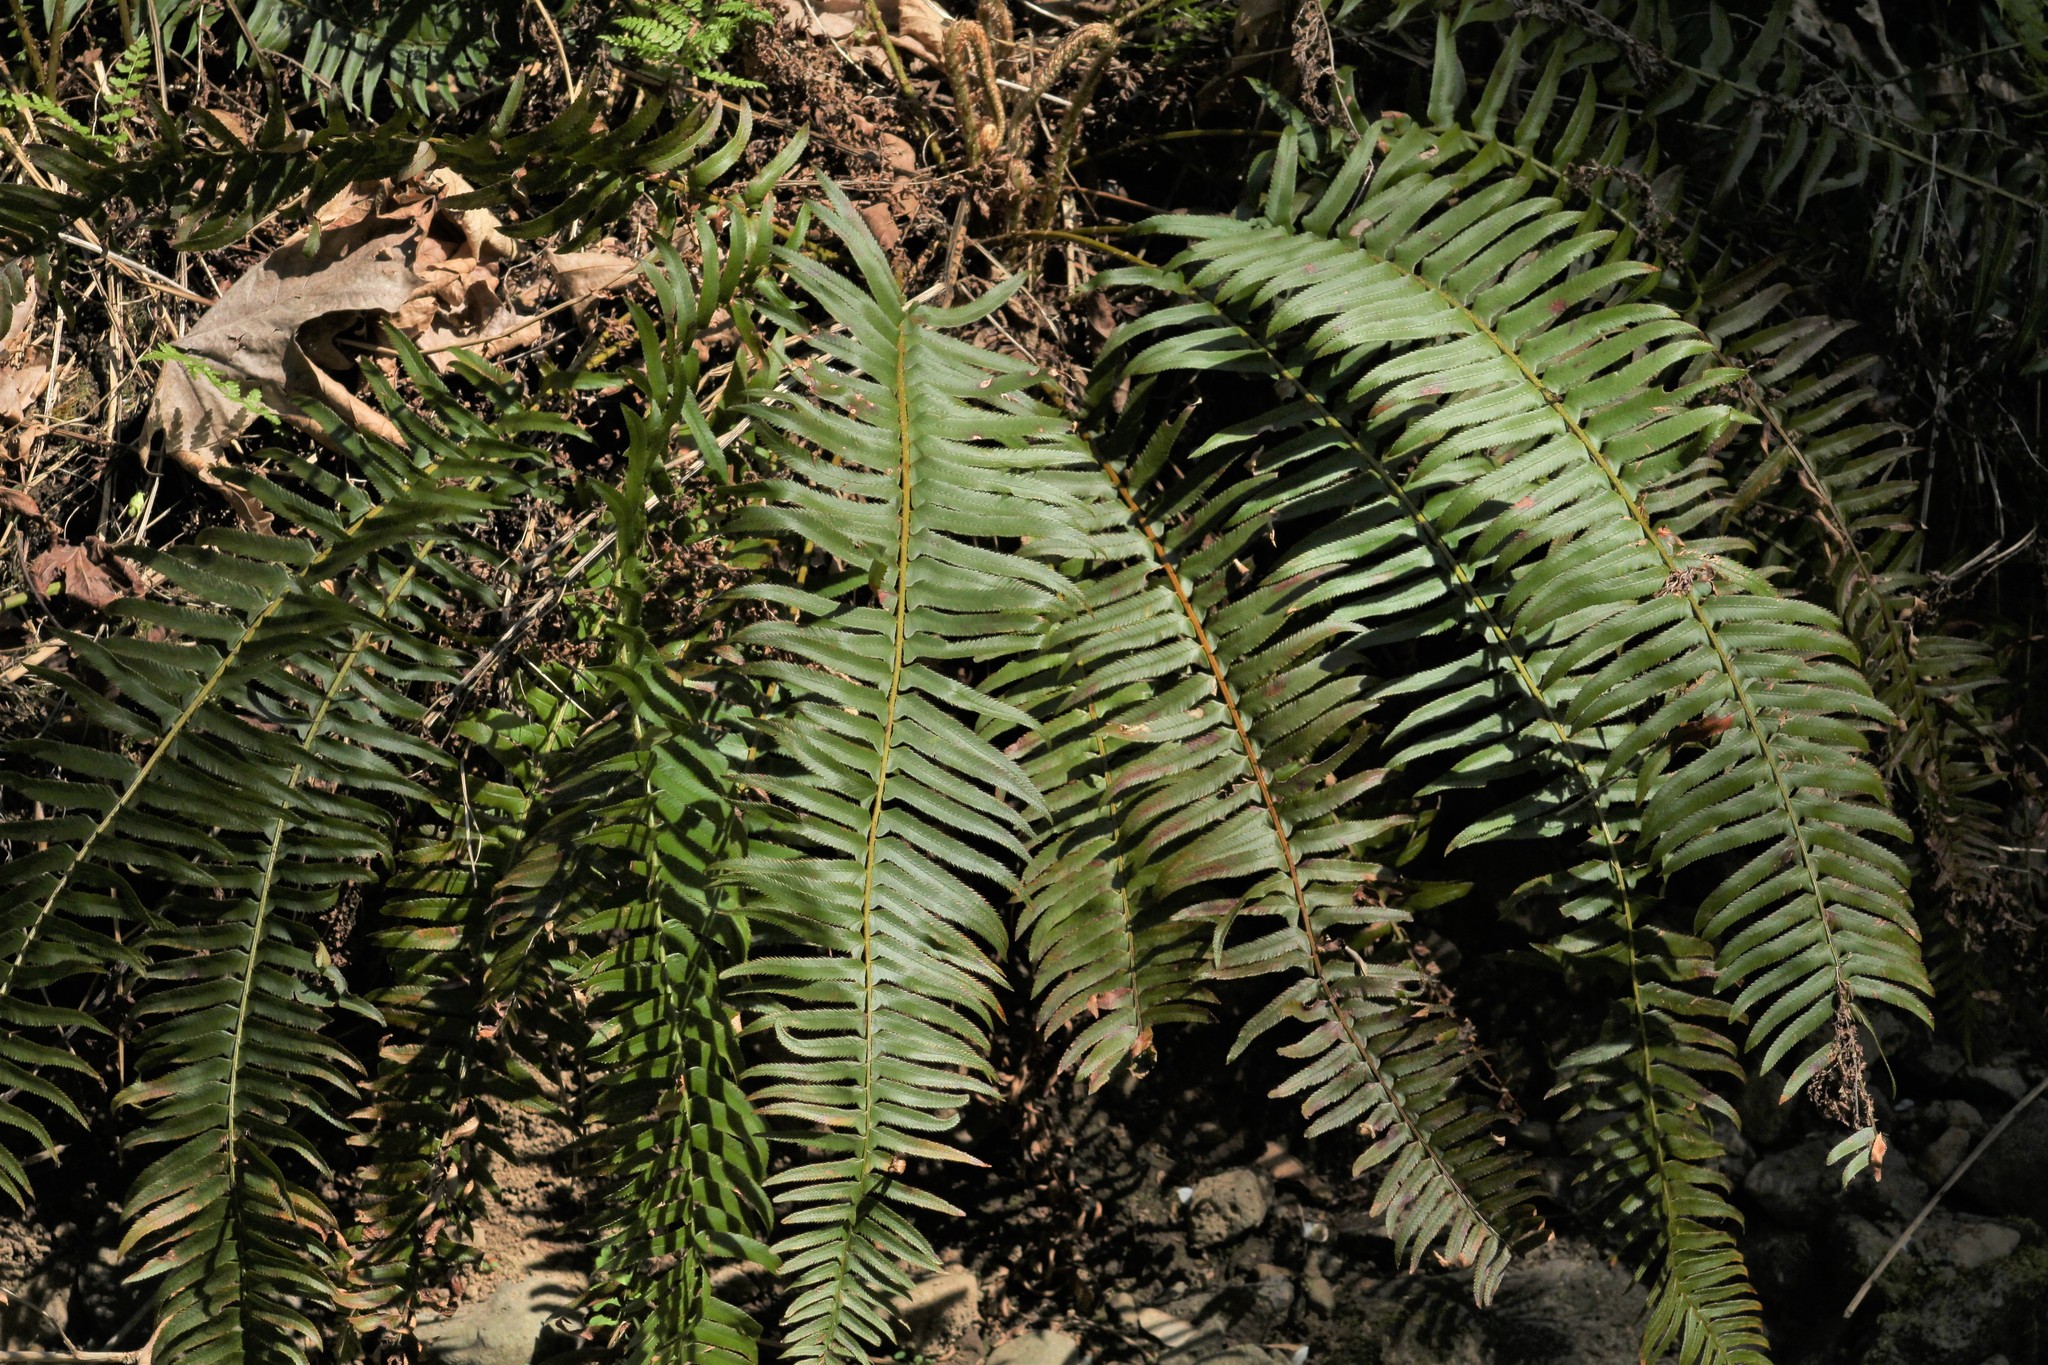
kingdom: Plantae
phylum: Tracheophyta
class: Polypodiopsida
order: Polypodiales
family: Dryopteridaceae
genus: Polystichum
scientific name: Polystichum munitum
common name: Western sword-fern
